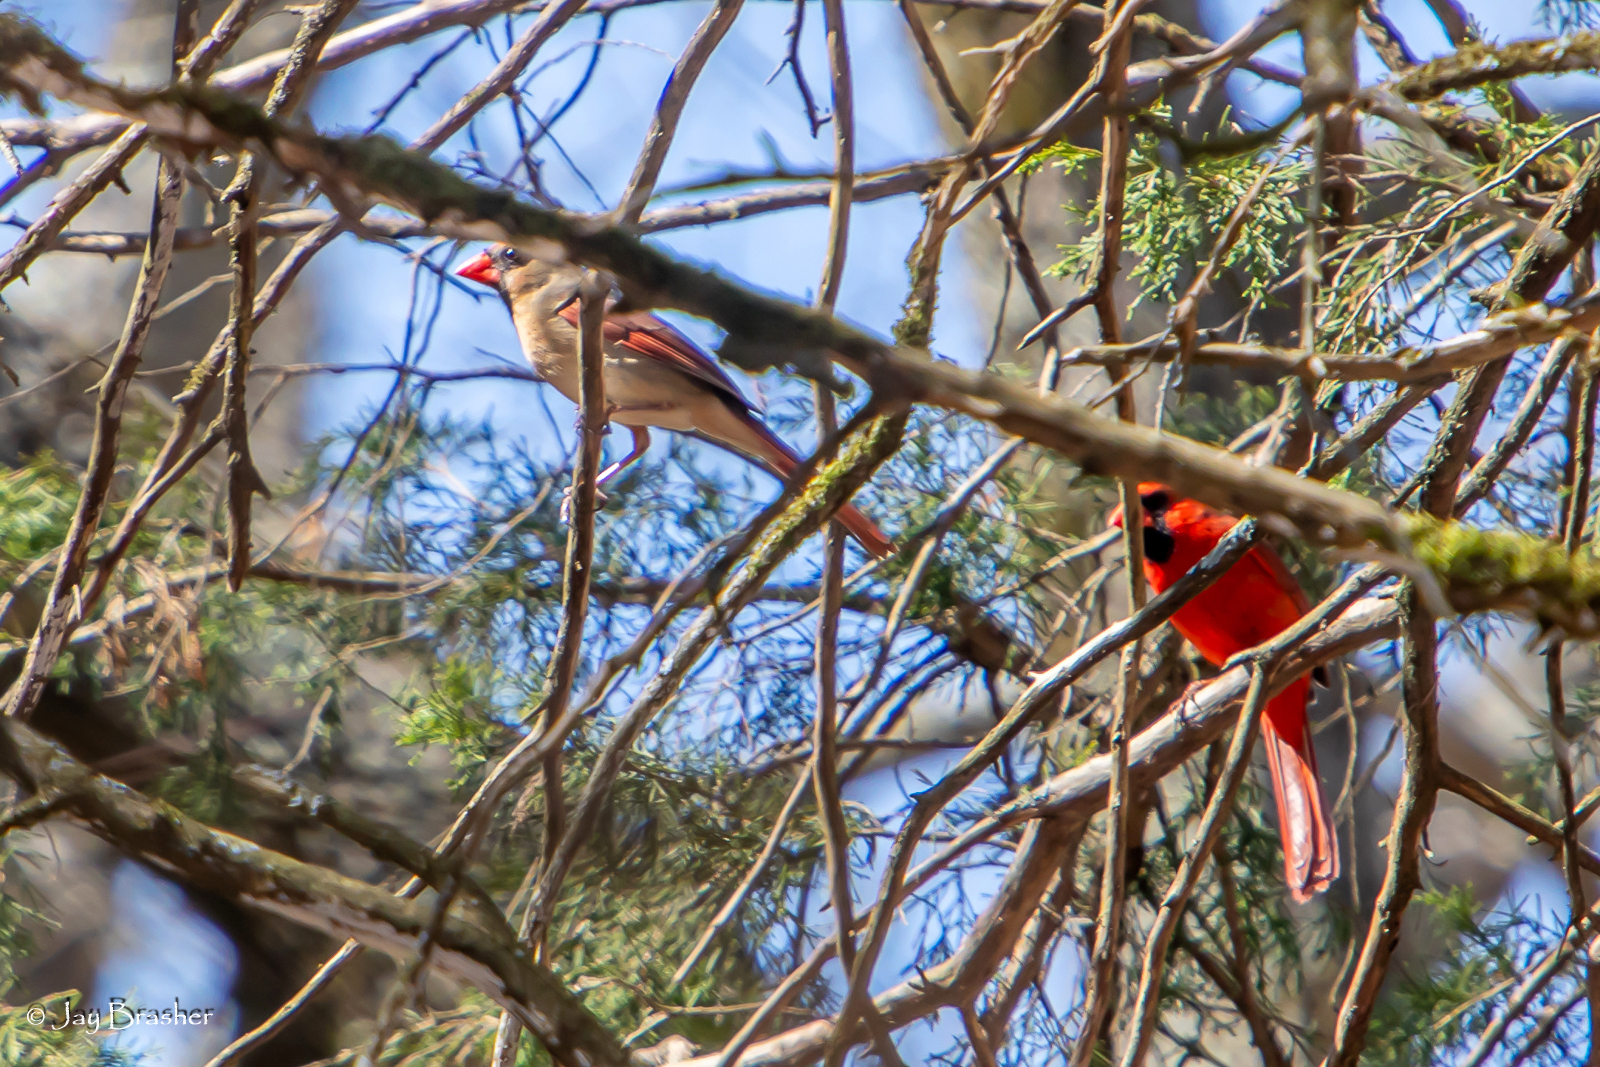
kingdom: Animalia
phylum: Chordata
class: Aves
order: Passeriformes
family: Cardinalidae
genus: Cardinalis
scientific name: Cardinalis cardinalis
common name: Northern cardinal
